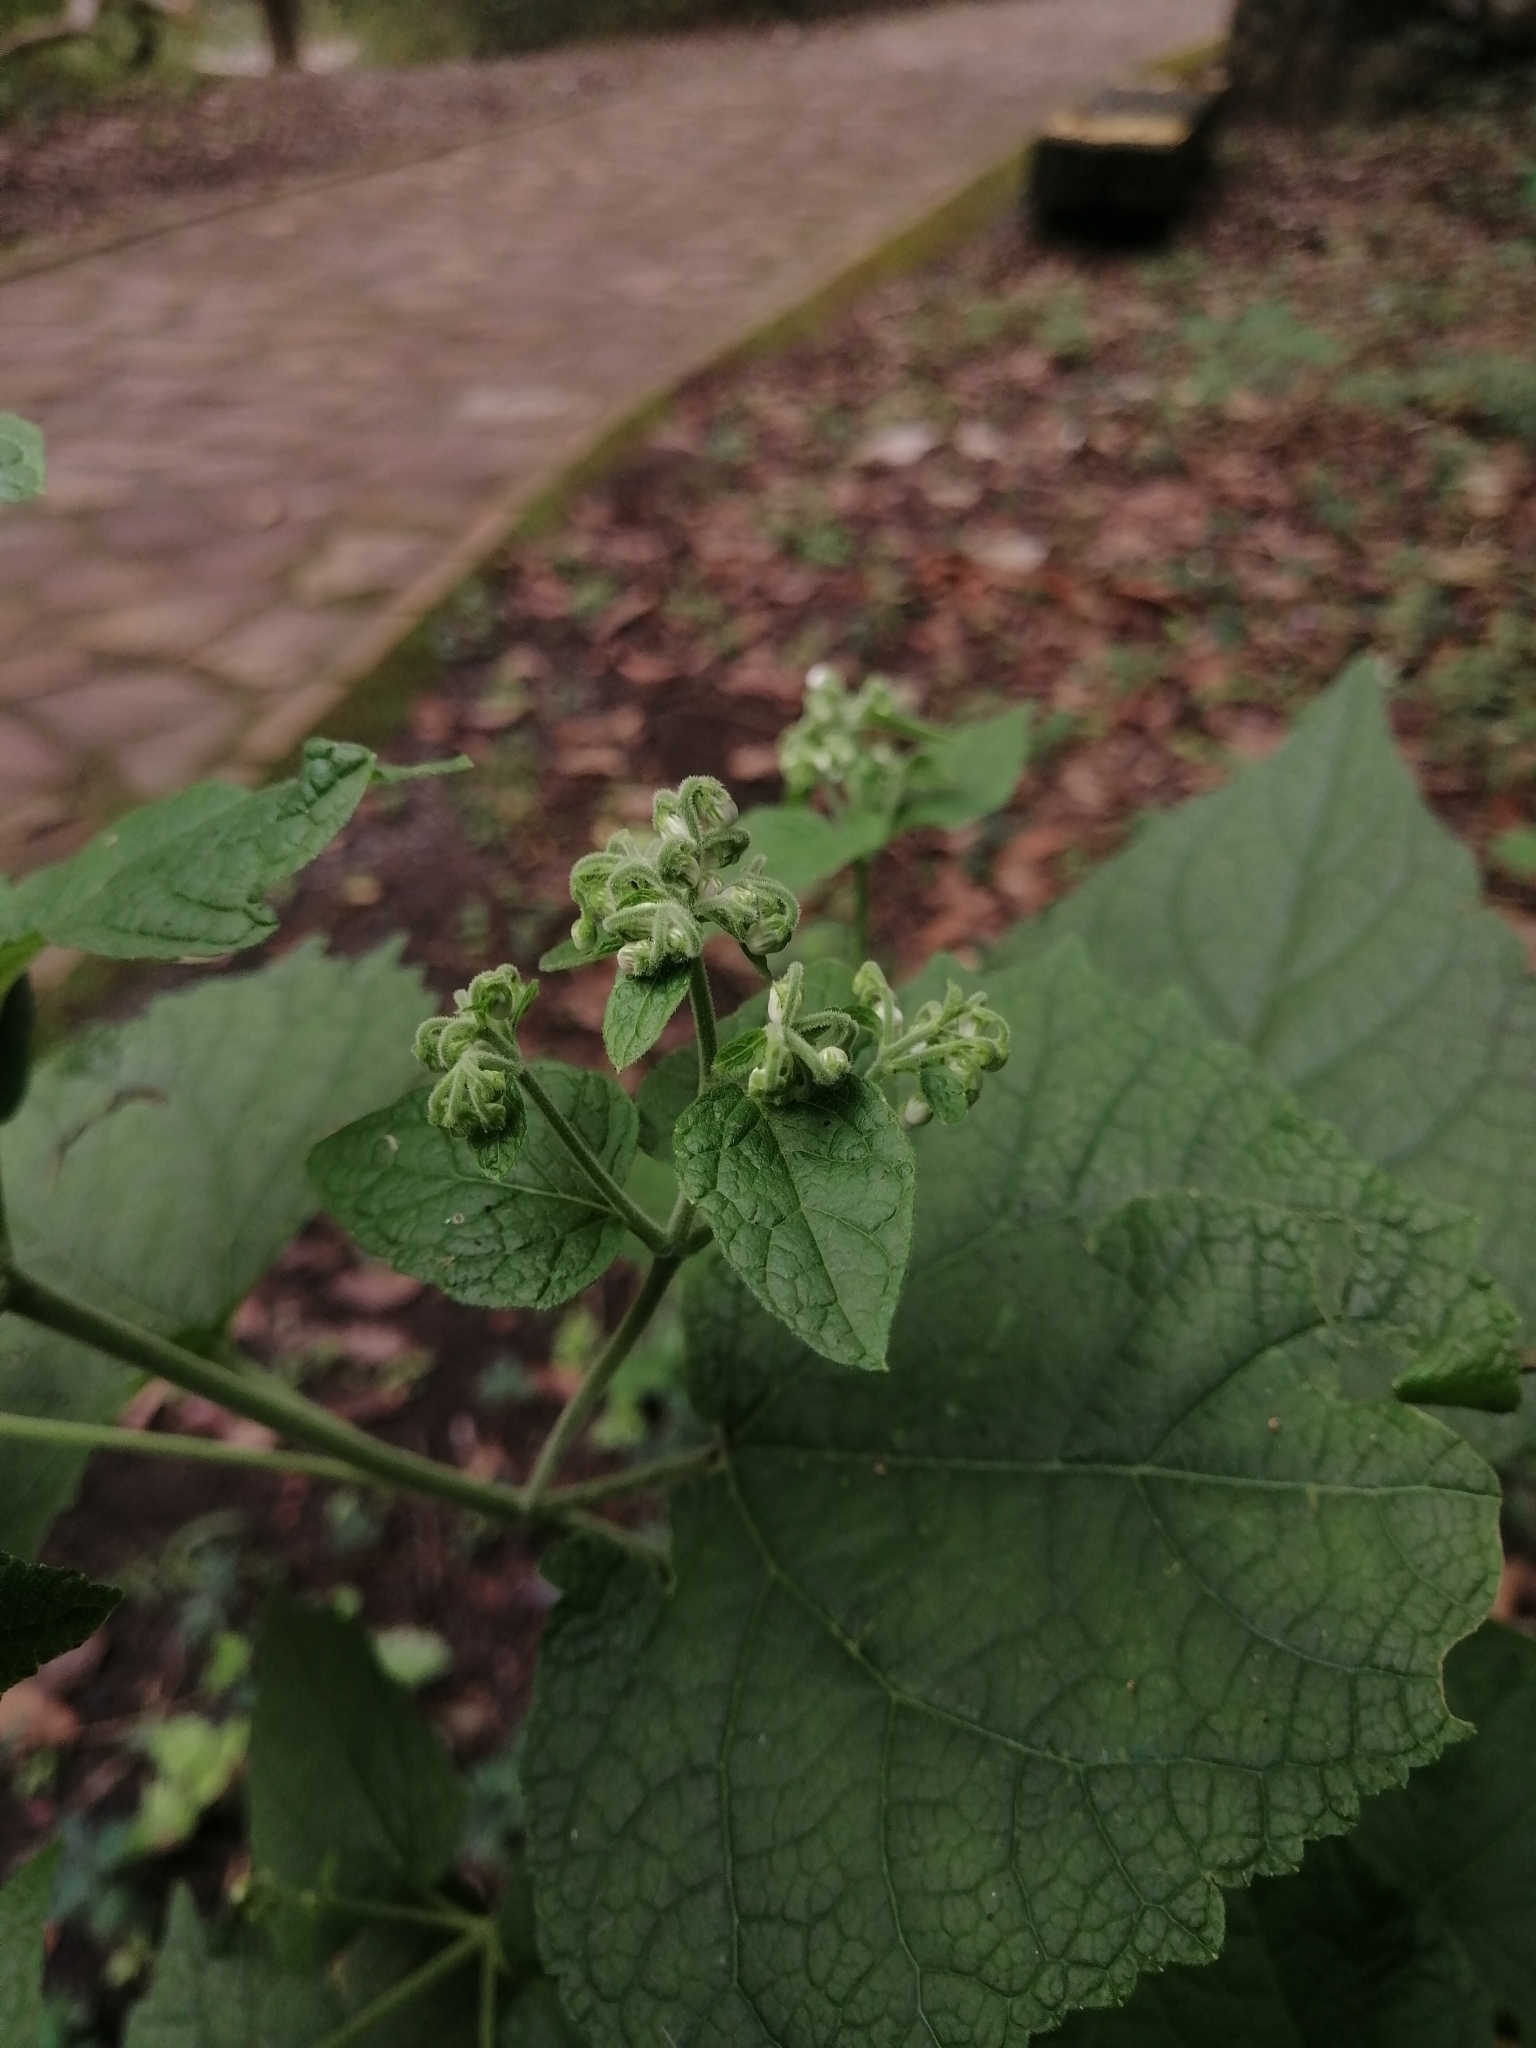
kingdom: Plantae
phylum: Tracheophyta
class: Magnoliopsida
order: Asterales
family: Asteraceae
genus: Peteravenia
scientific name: Peteravenia malvifolia
